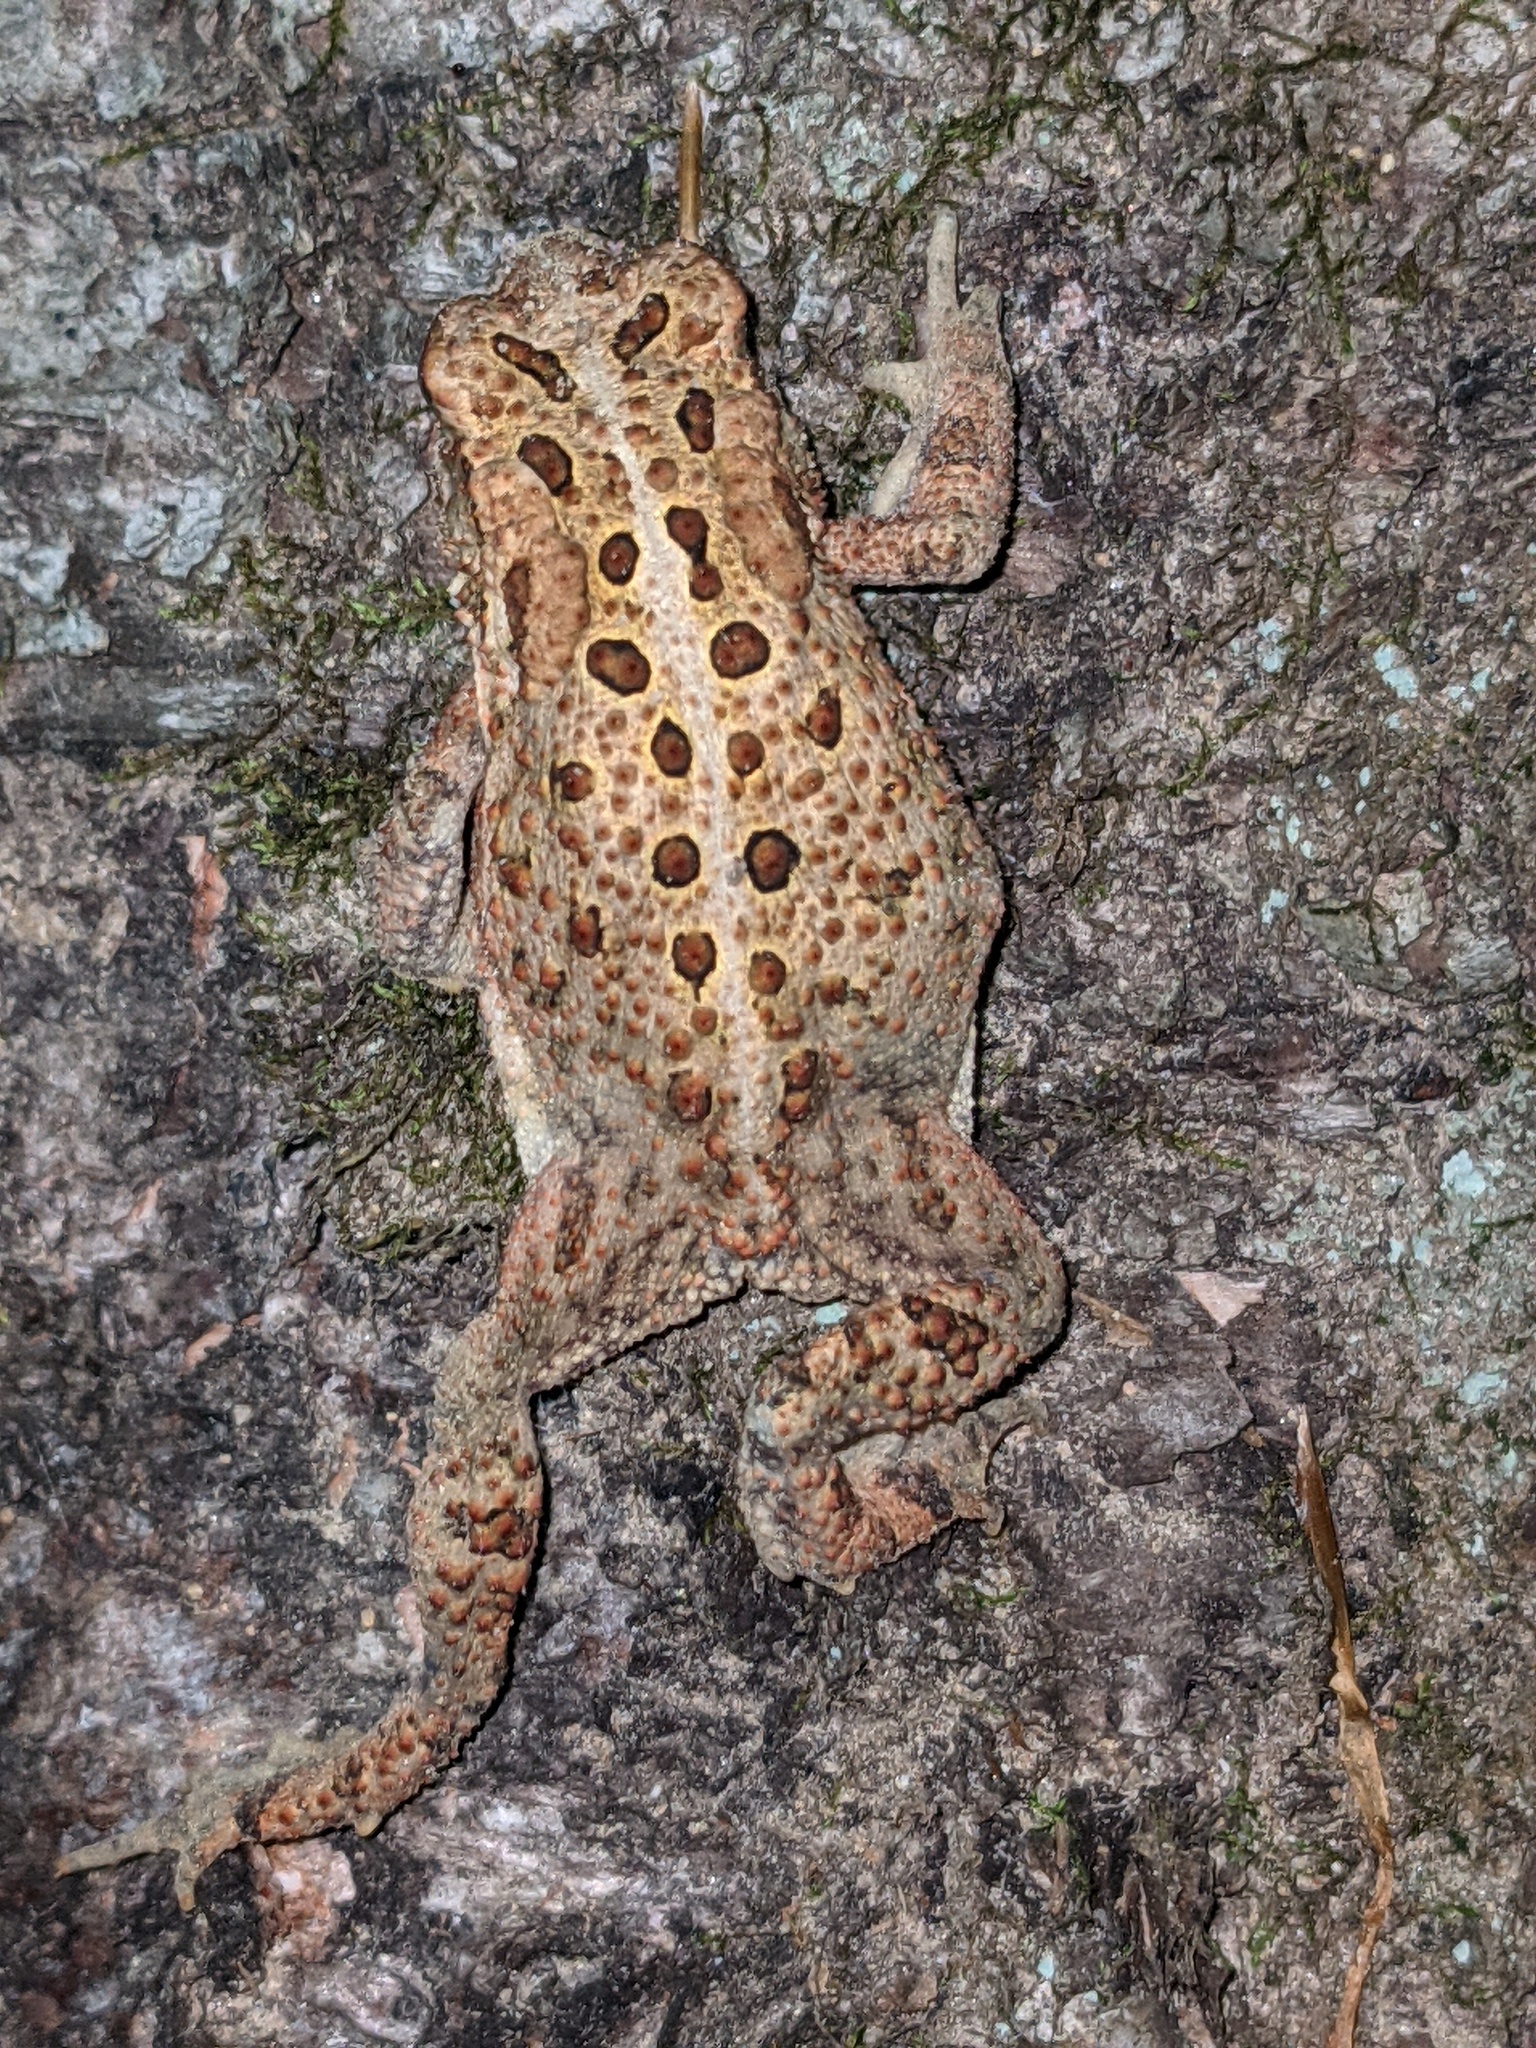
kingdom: Animalia
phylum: Chordata
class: Amphibia
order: Anura
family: Bufonidae
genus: Anaxyrus
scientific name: Anaxyrus americanus
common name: American toad
